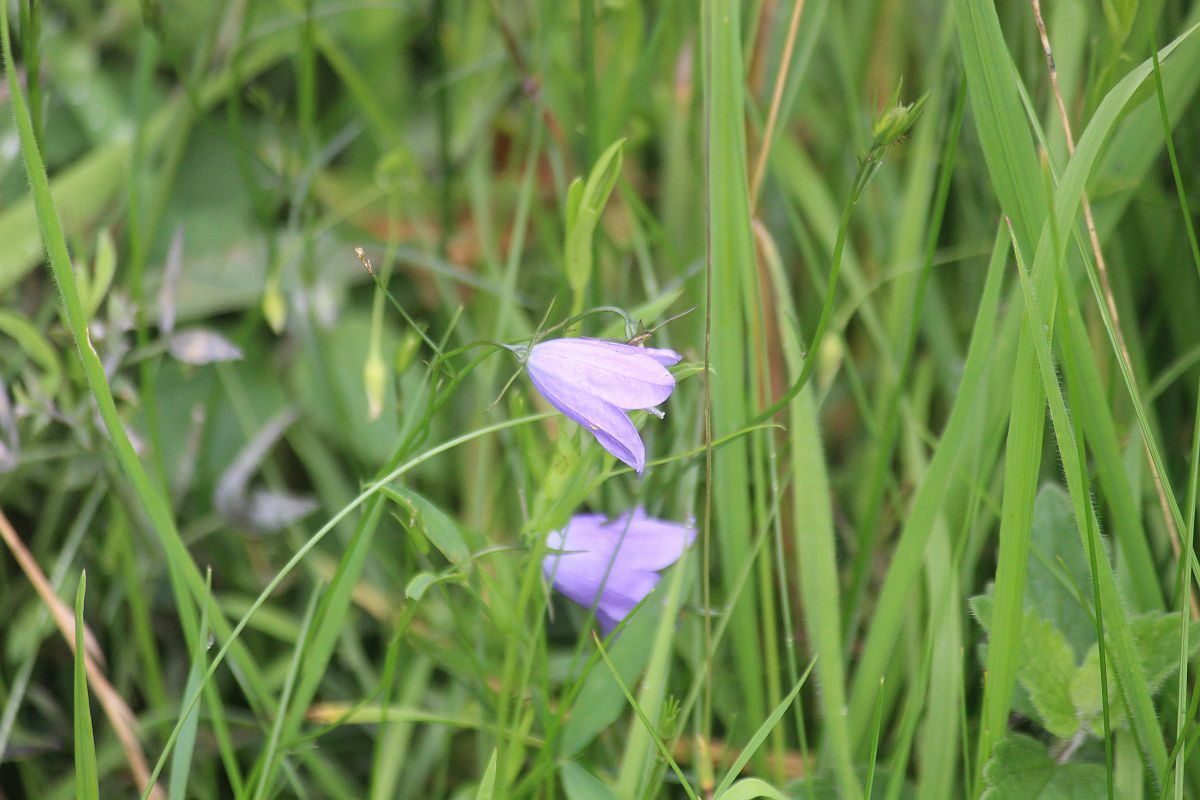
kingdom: Plantae
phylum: Tracheophyta
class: Magnoliopsida
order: Asterales
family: Campanulaceae
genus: Campanula
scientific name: Campanula rotundifolia
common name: Harebell
